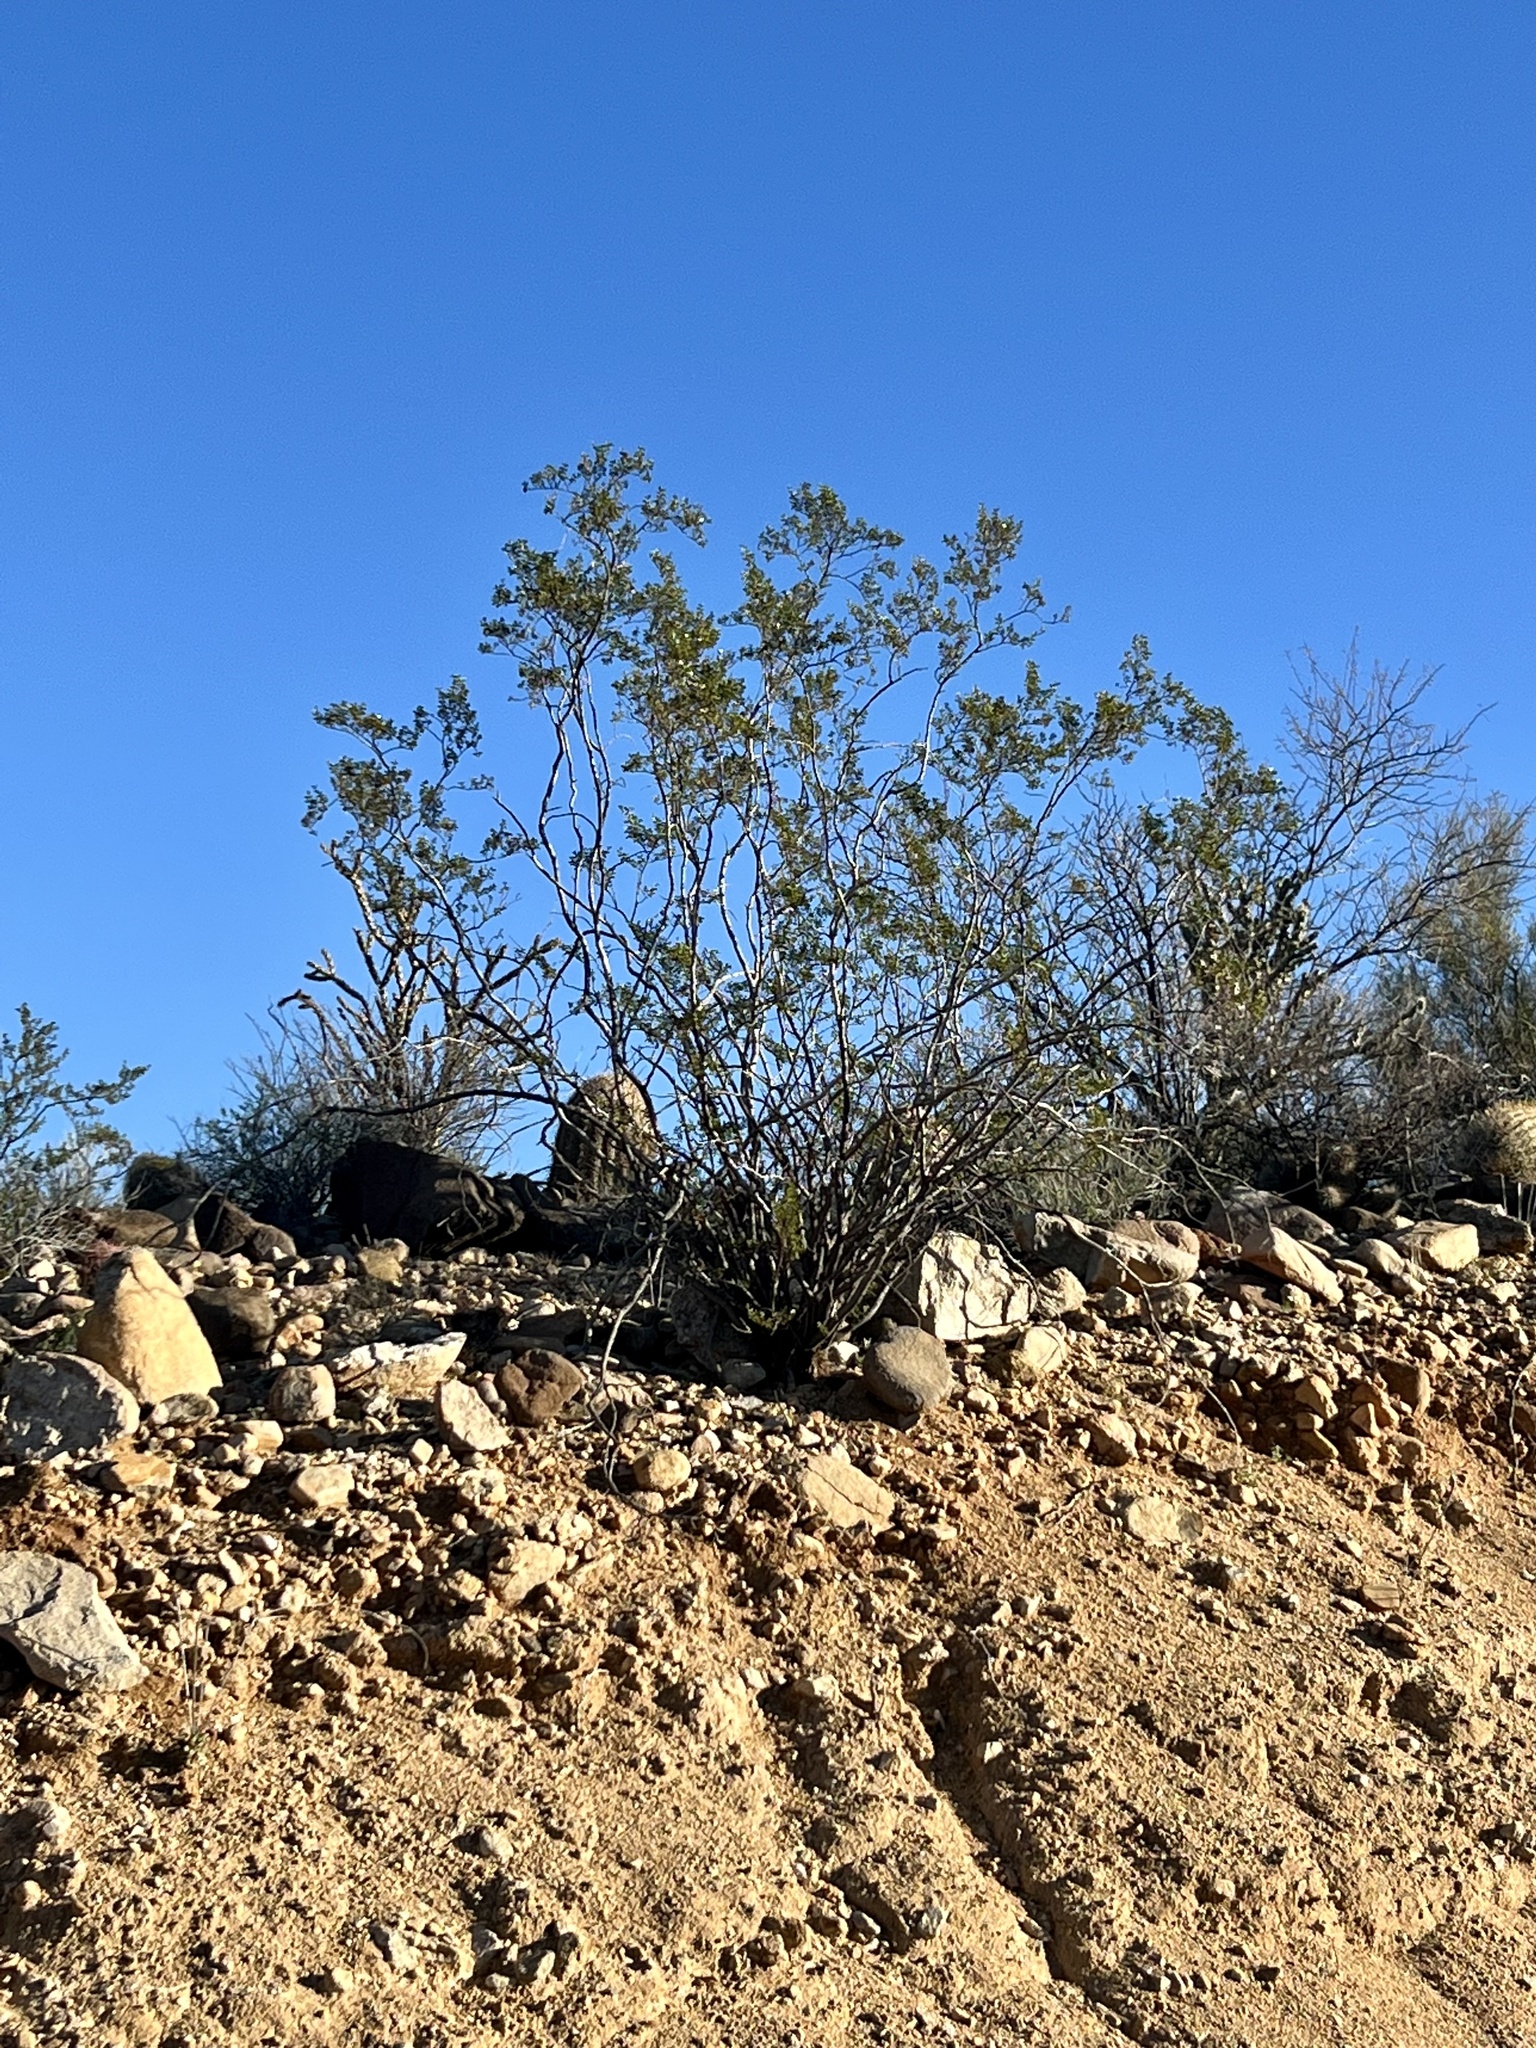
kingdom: Plantae
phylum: Tracheophyta
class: Magnoliopsida
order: Zygophyllales
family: Zygophyllaceae
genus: Larrea
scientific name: Larrea tridentata
